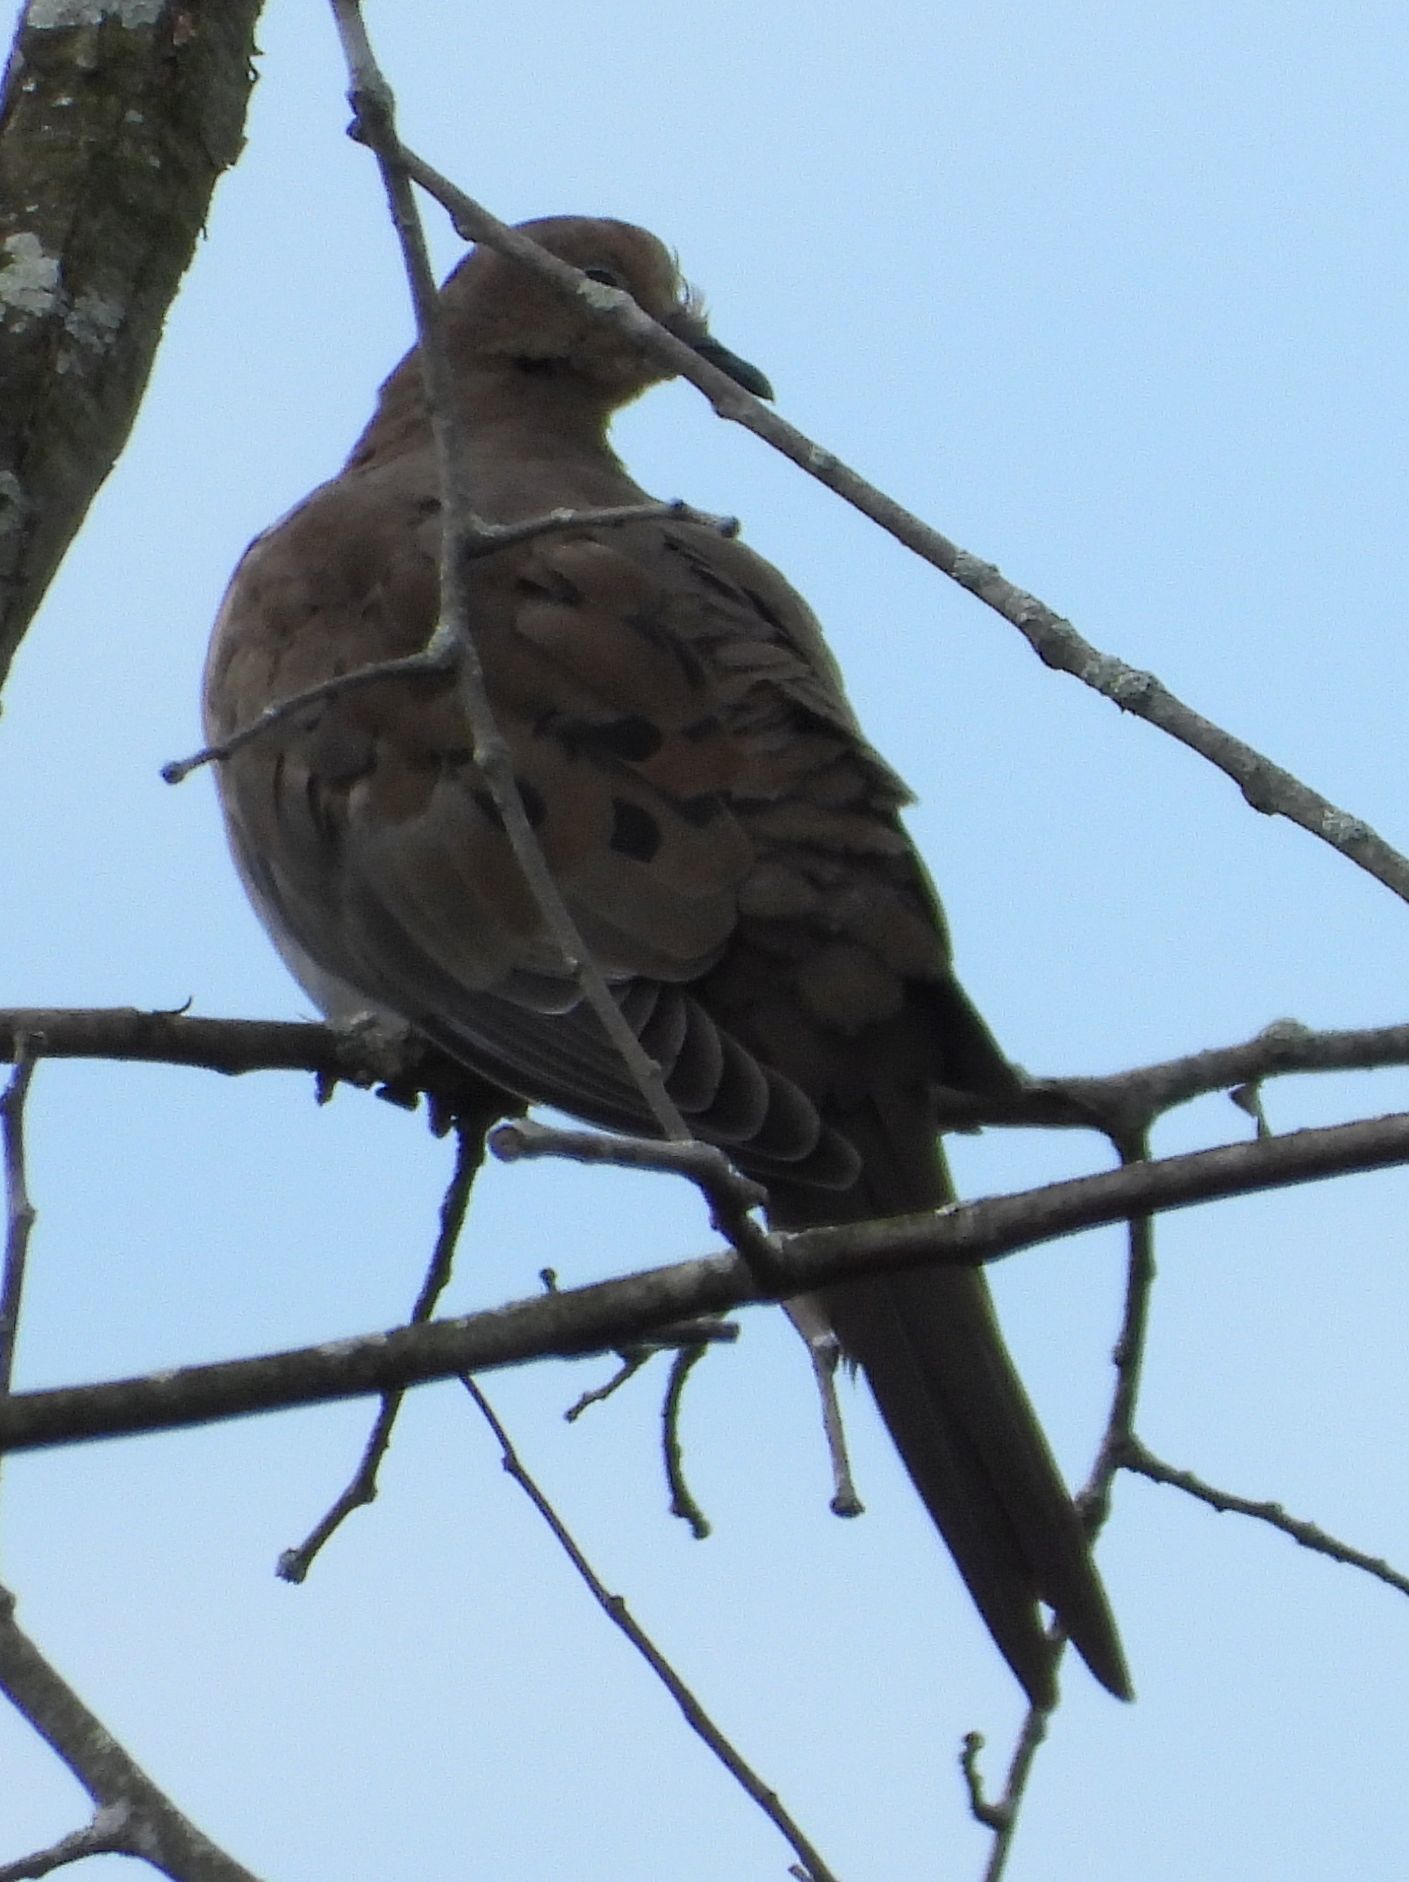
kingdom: Animalia
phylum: Chordata
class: Aves
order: Columbiformes
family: Columbidae
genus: Zenaida
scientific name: Zenaida macroura
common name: Mourning dove
